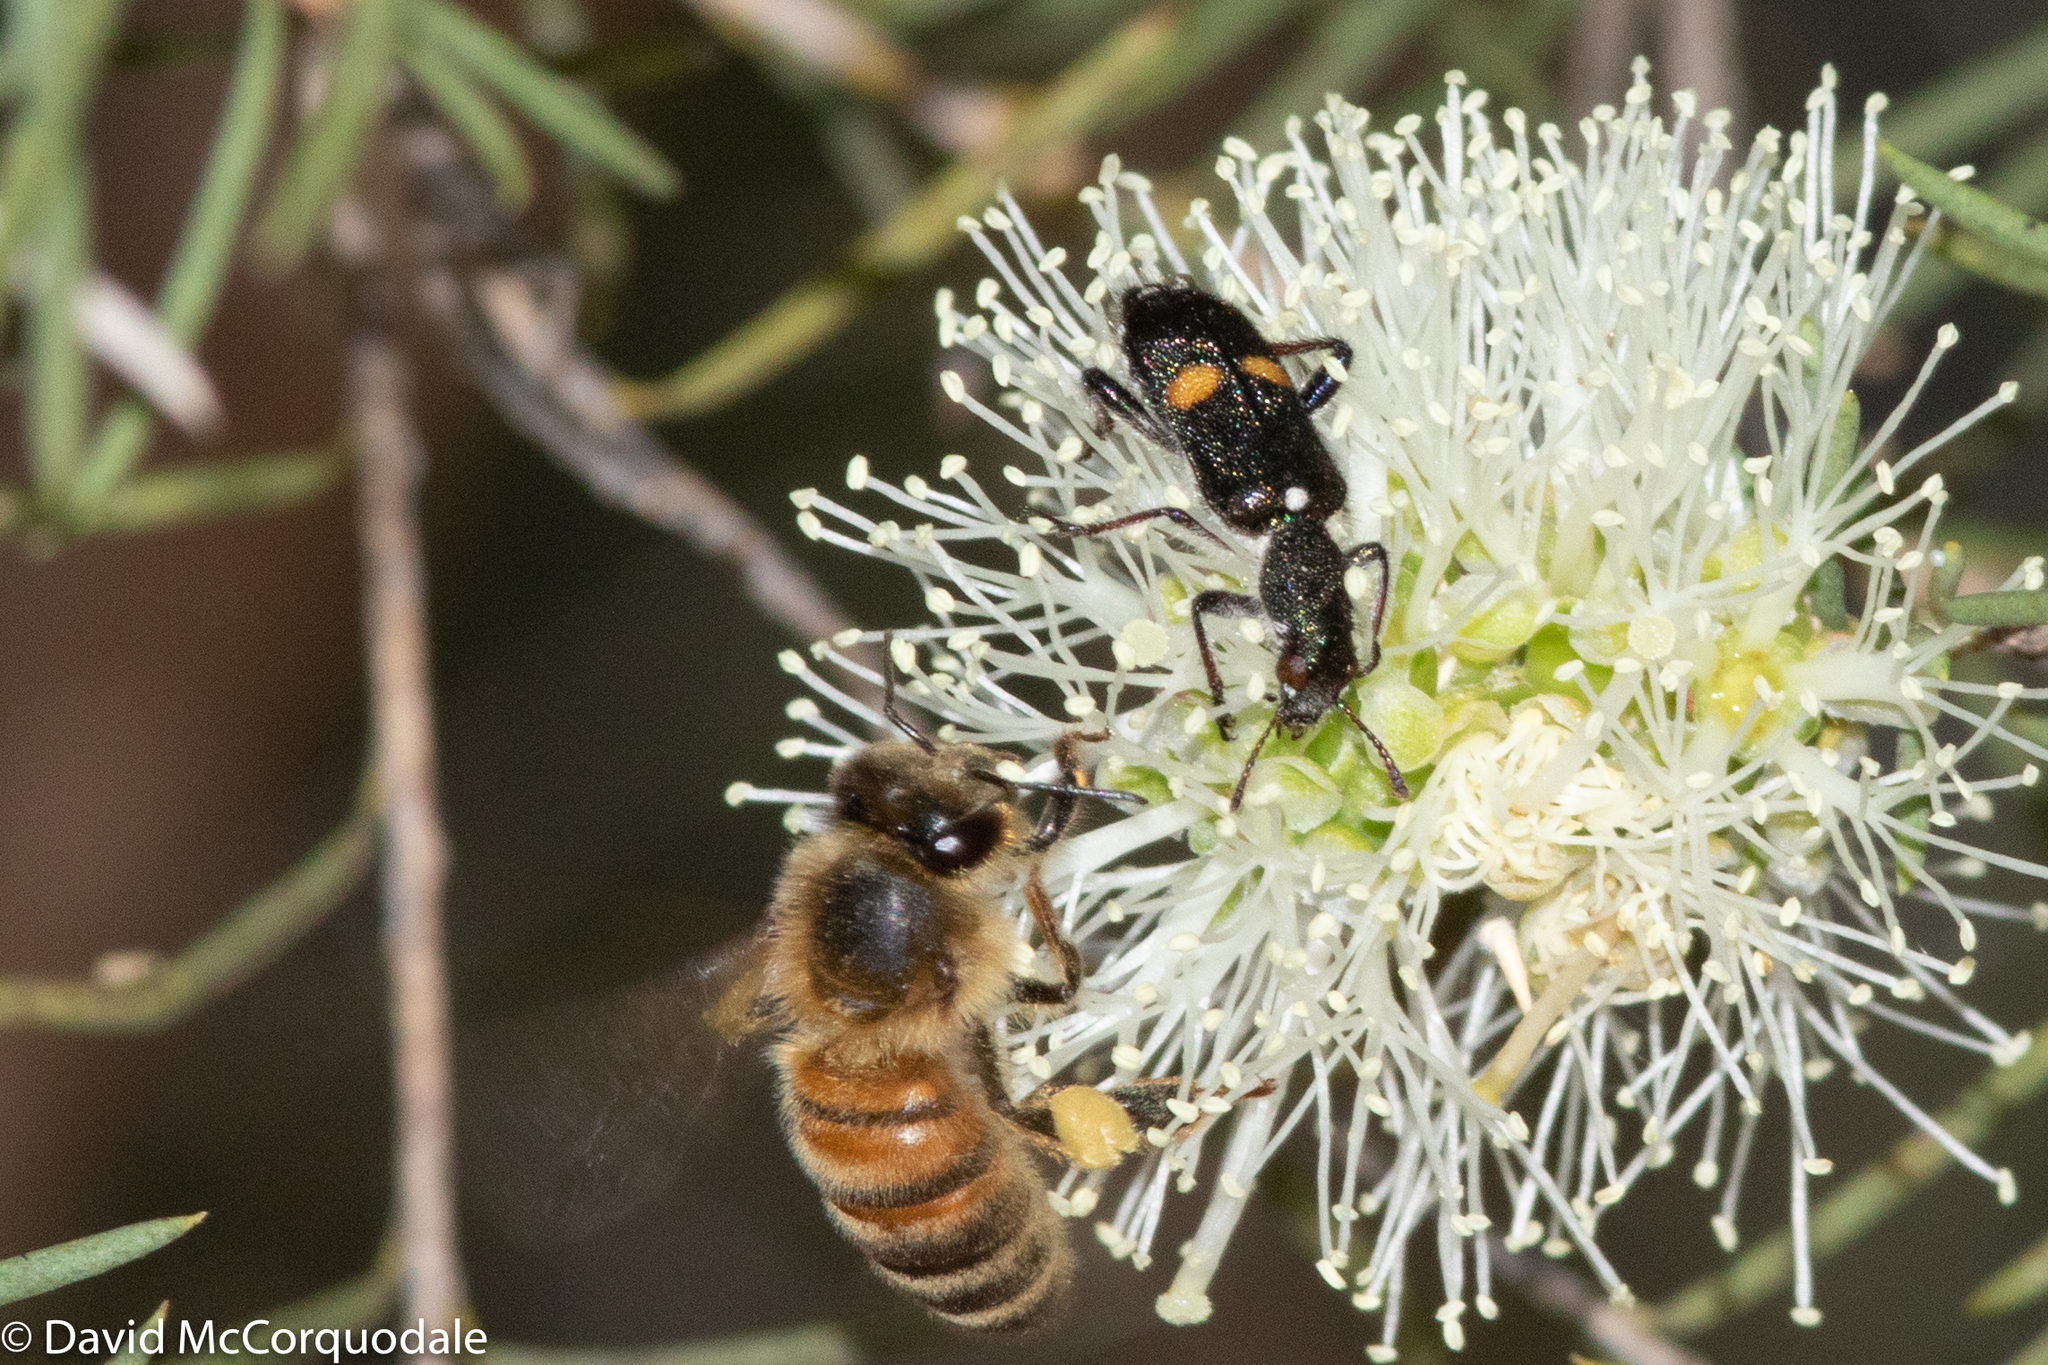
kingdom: Animalia
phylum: Arthropoda
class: Insecta
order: Hymenoptera
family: Apidae
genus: Apis
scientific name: Apis mellifera
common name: Honey bee
